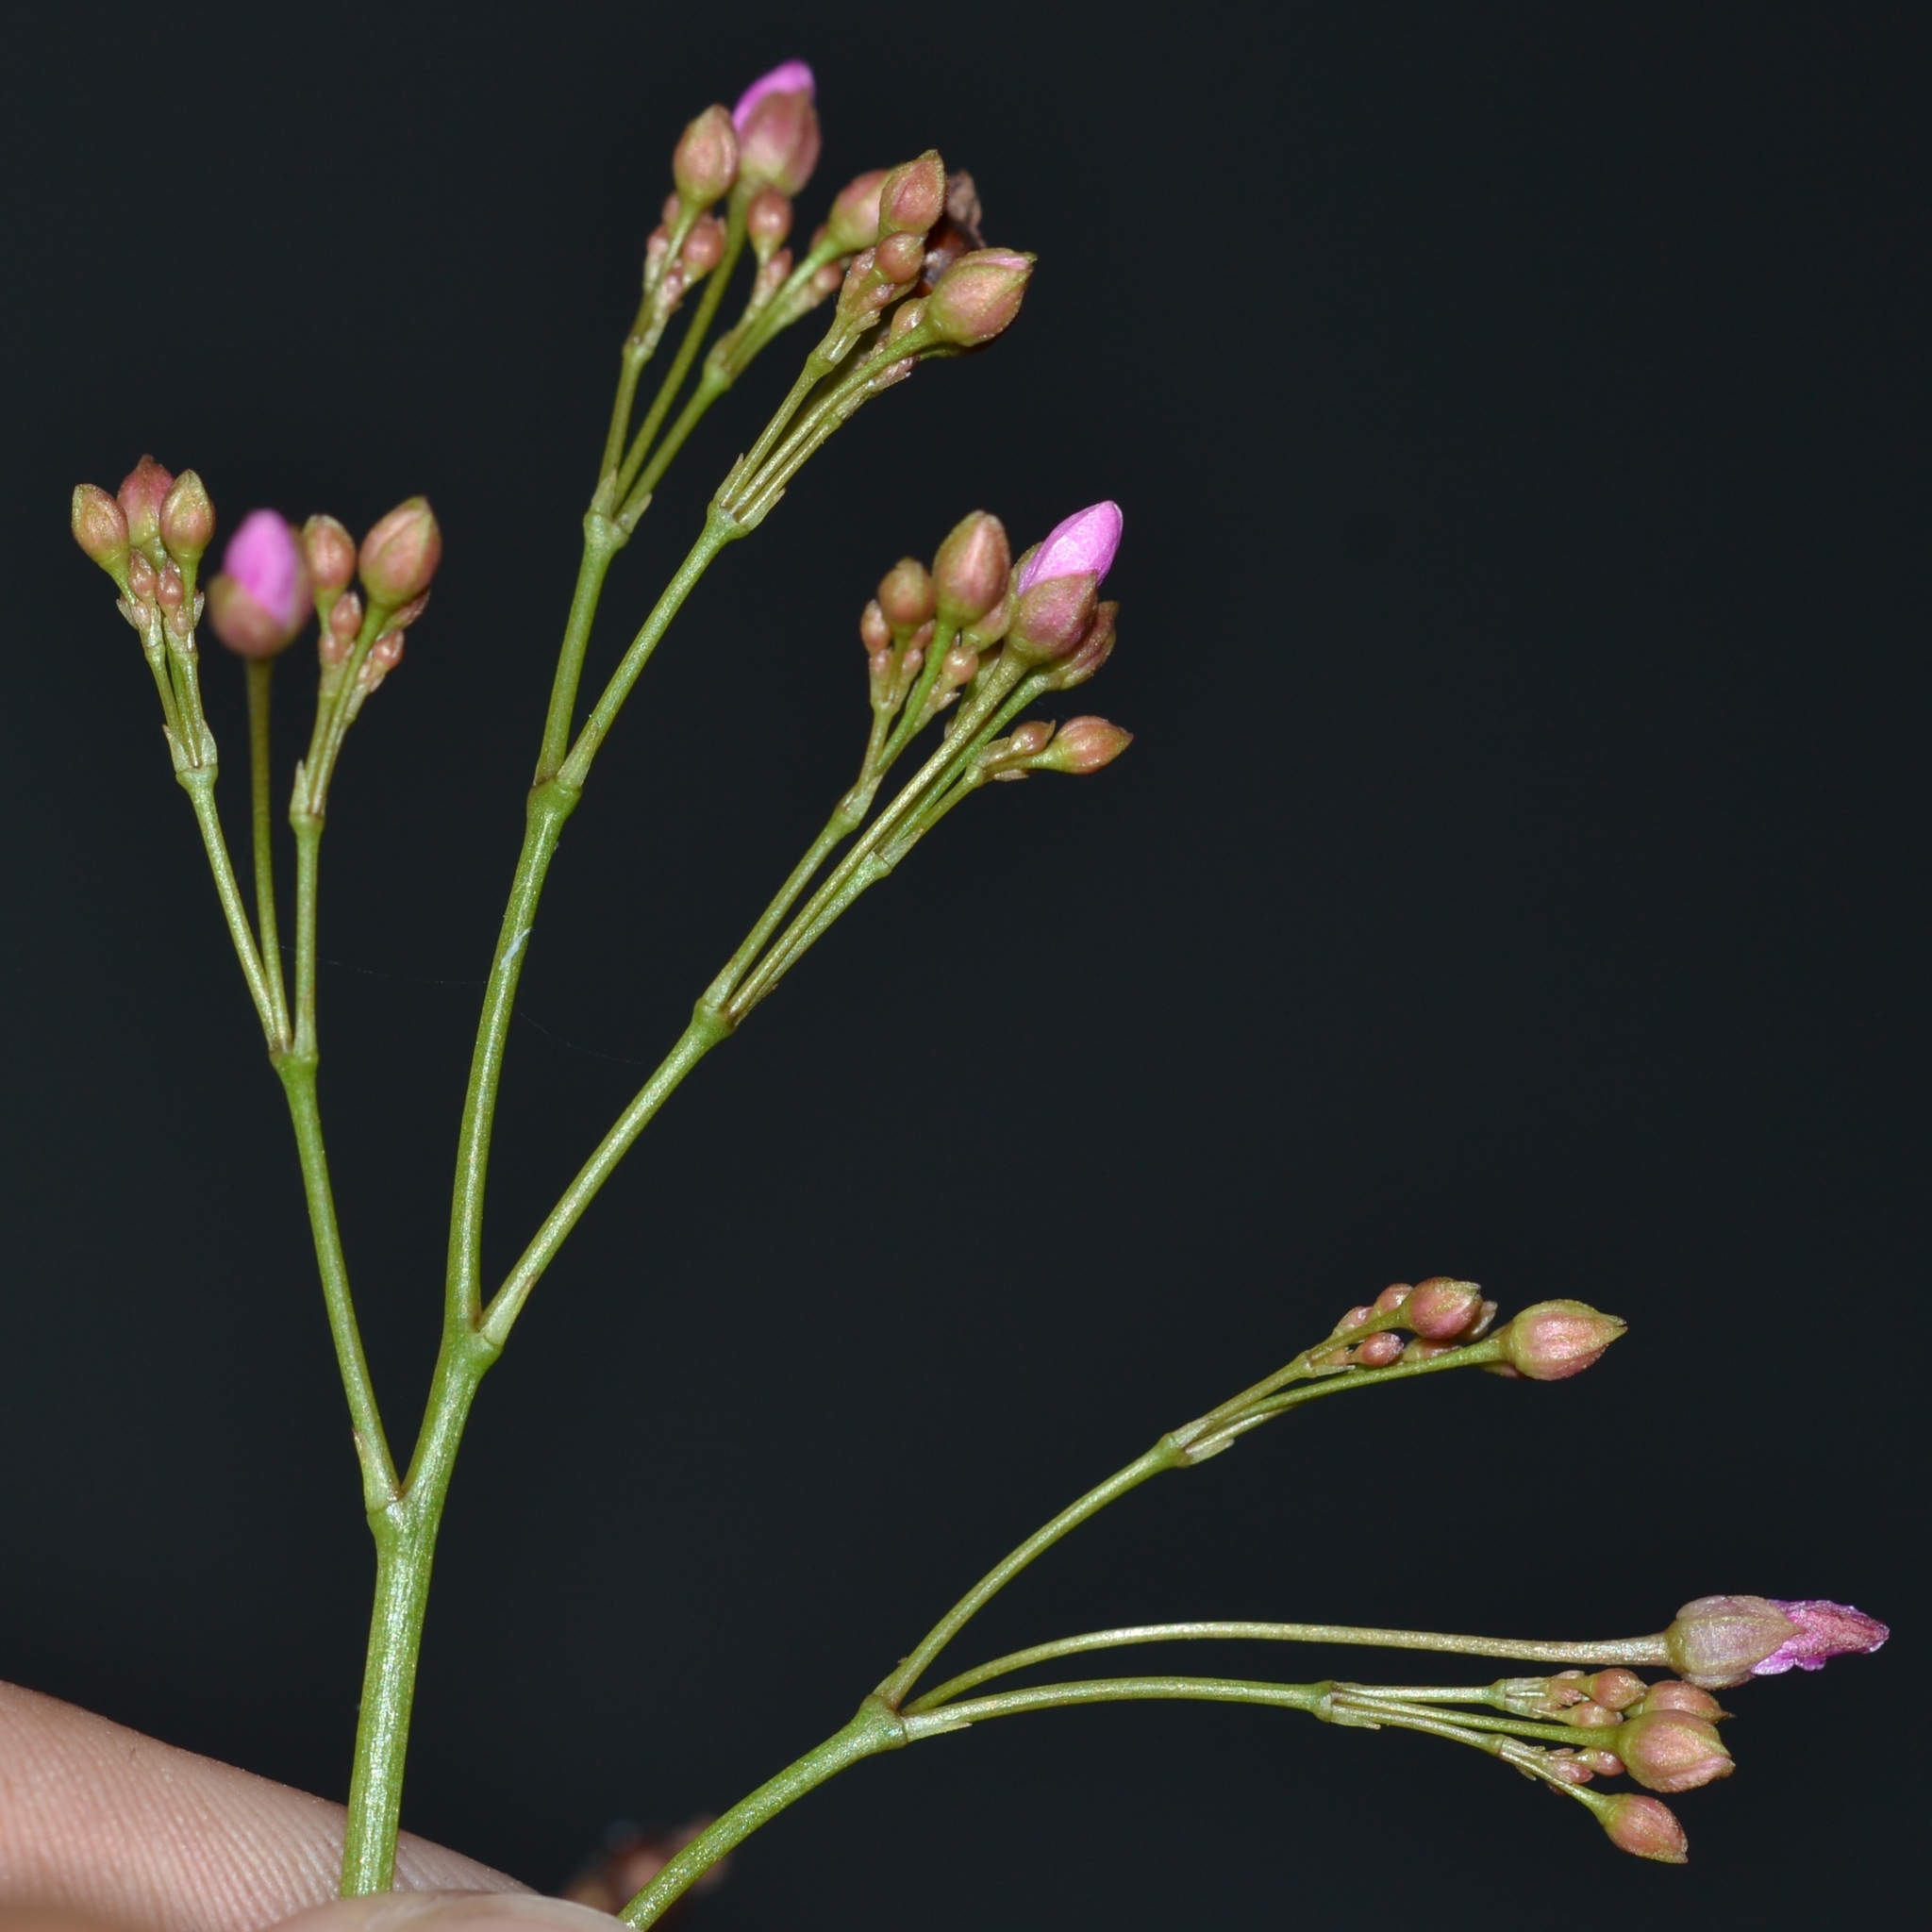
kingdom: Plantae
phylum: Tracheophyta
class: Magnoliopsida
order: Caryophyllales
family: Talinaceae
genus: Talinum
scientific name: Talinum paniculatum
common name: Jewels of opar
